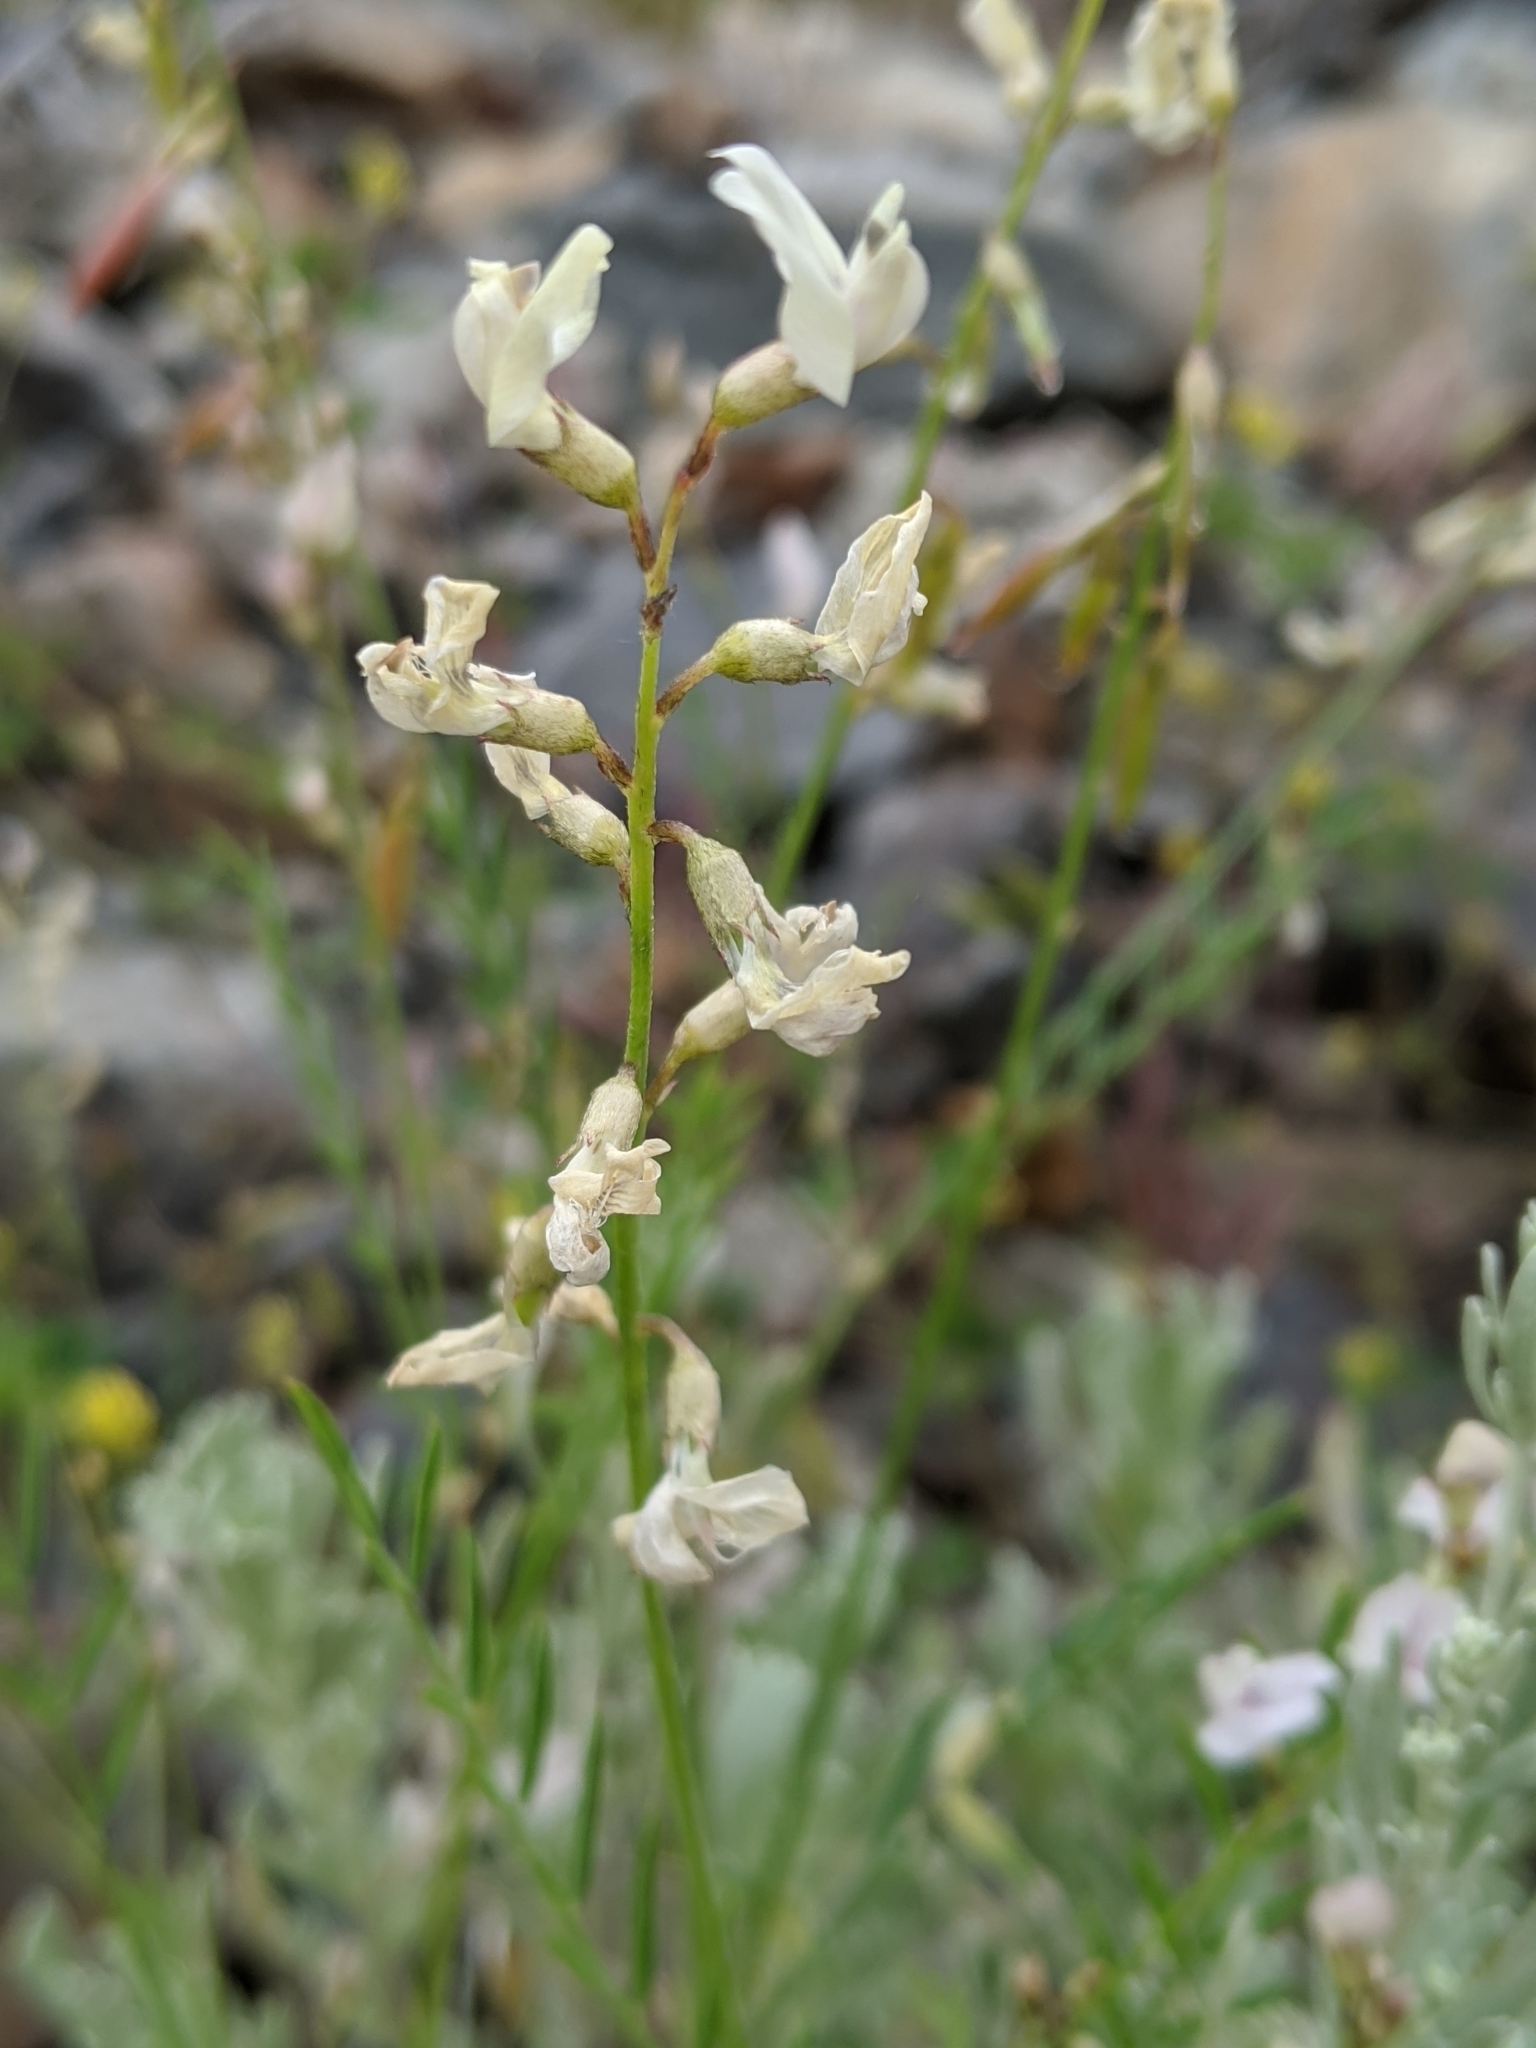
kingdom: Plantae
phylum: Tracheophyta
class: Magnoliopsida
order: Fabales
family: Fabaceae
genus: Astragalus
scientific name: Astragalus miser
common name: Timber milkvetch
